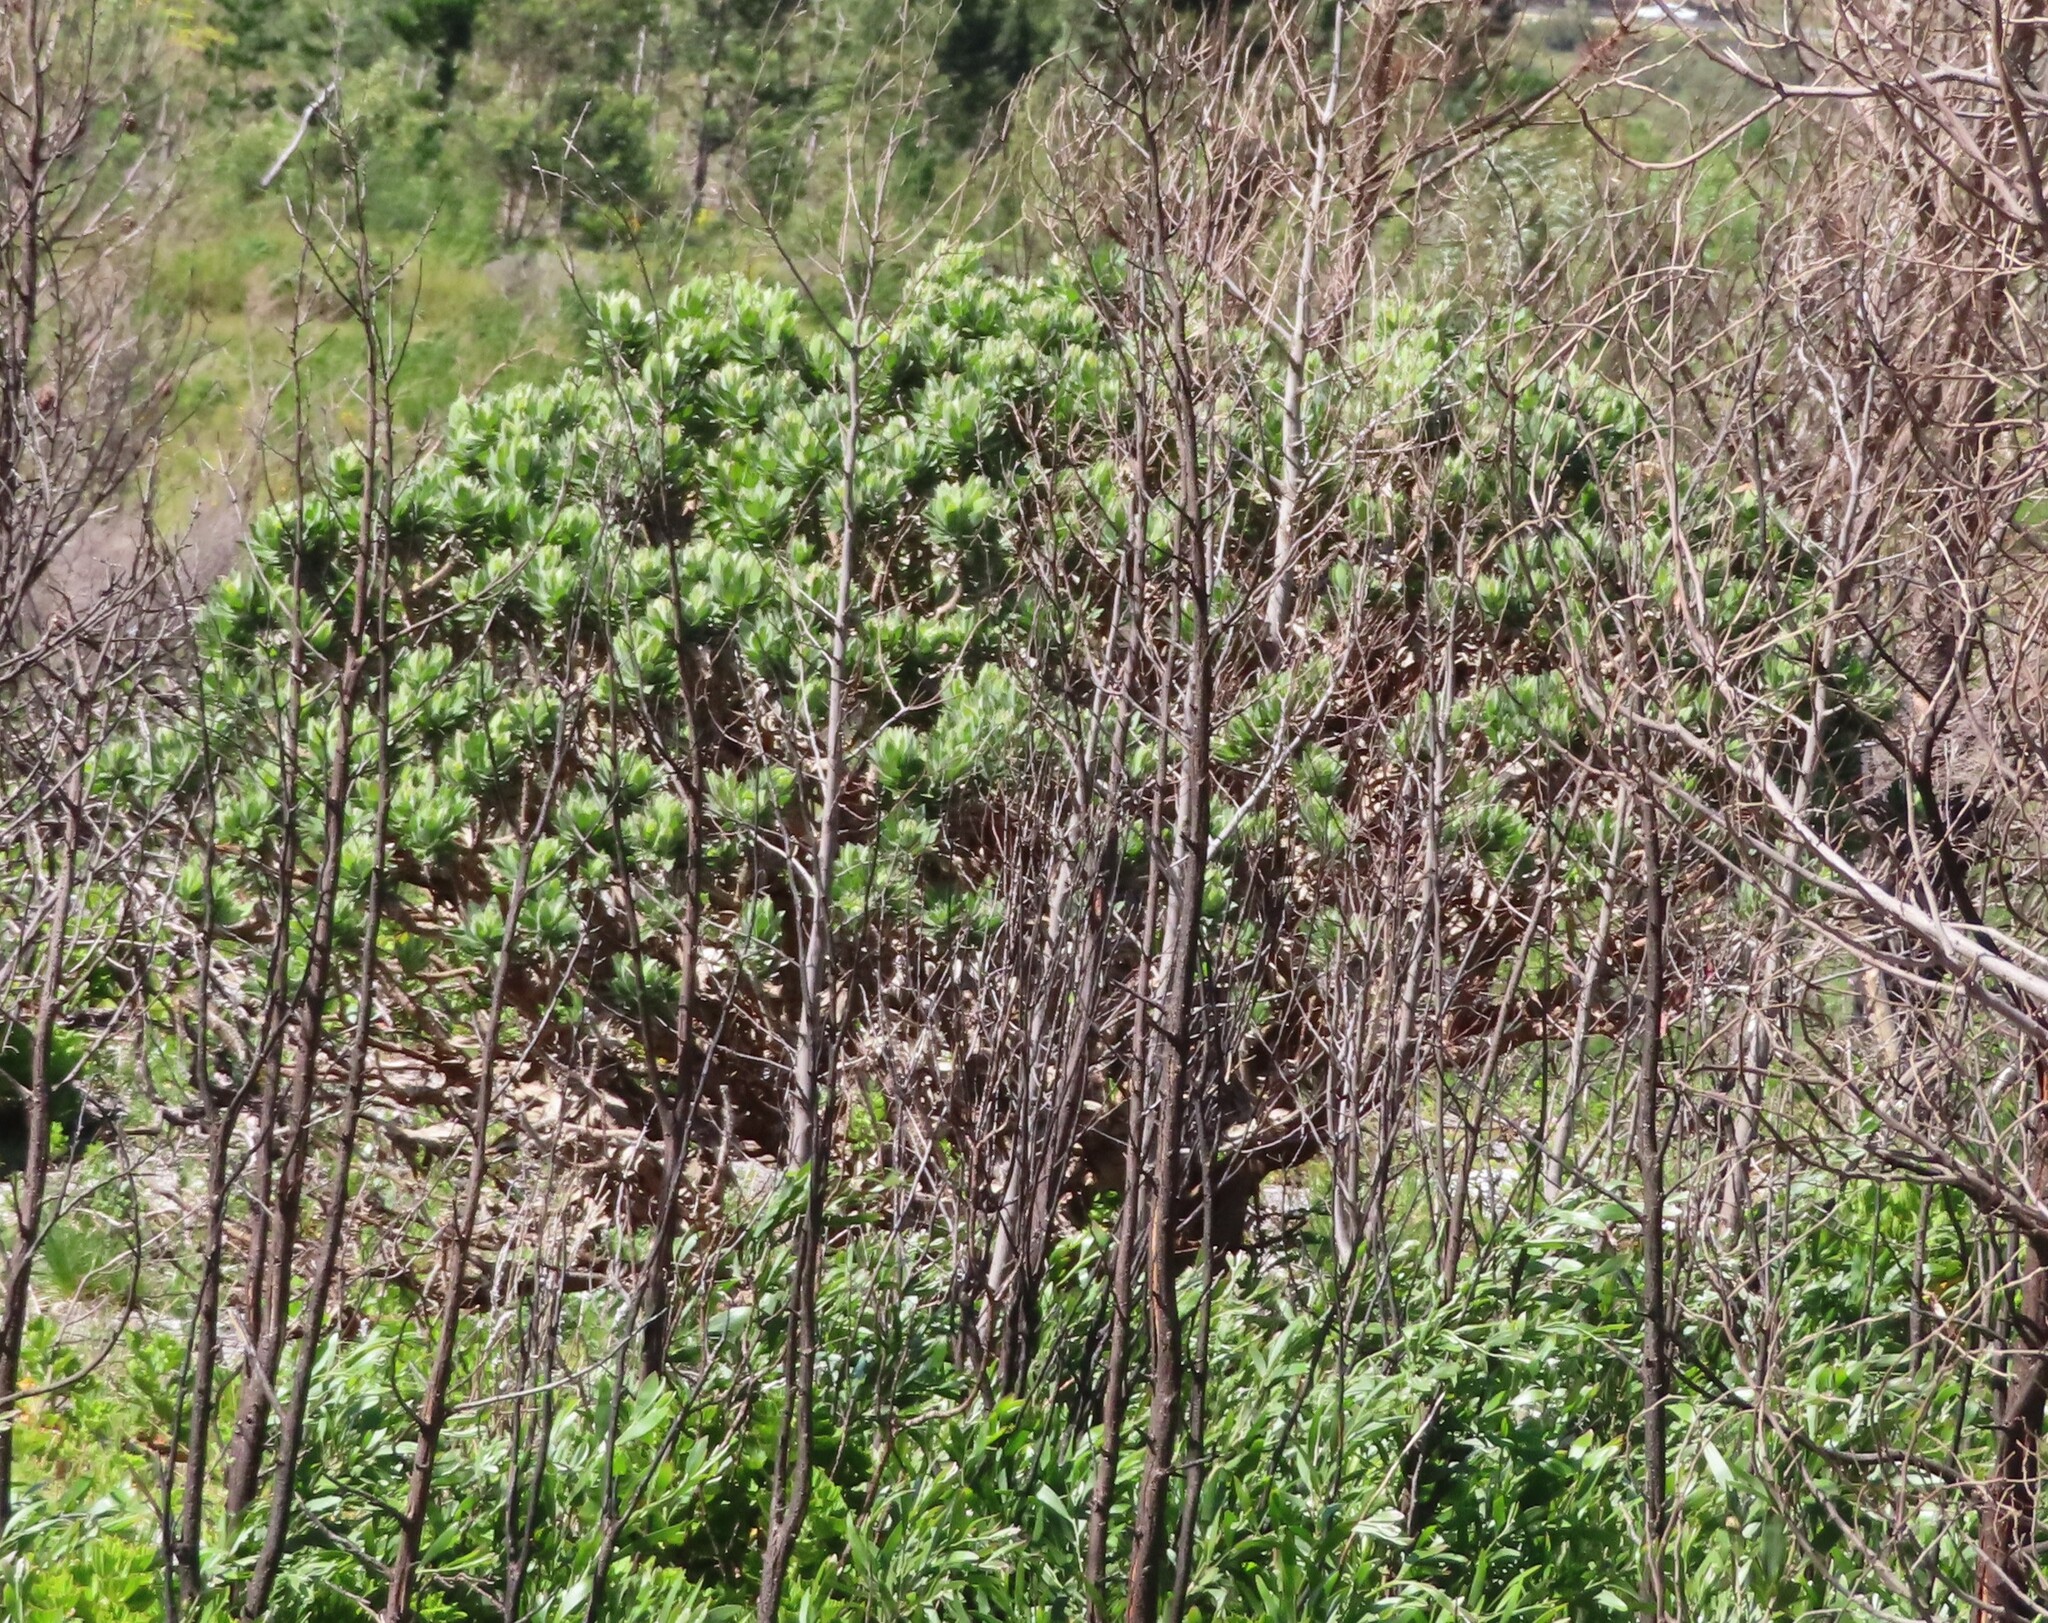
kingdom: Plantae
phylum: Tracheophyta
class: Magnoliopsida
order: Proteales
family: Proteaceae
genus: Leucospermum
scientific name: Leucospermum conocarpodendron
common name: Tree pincushion
